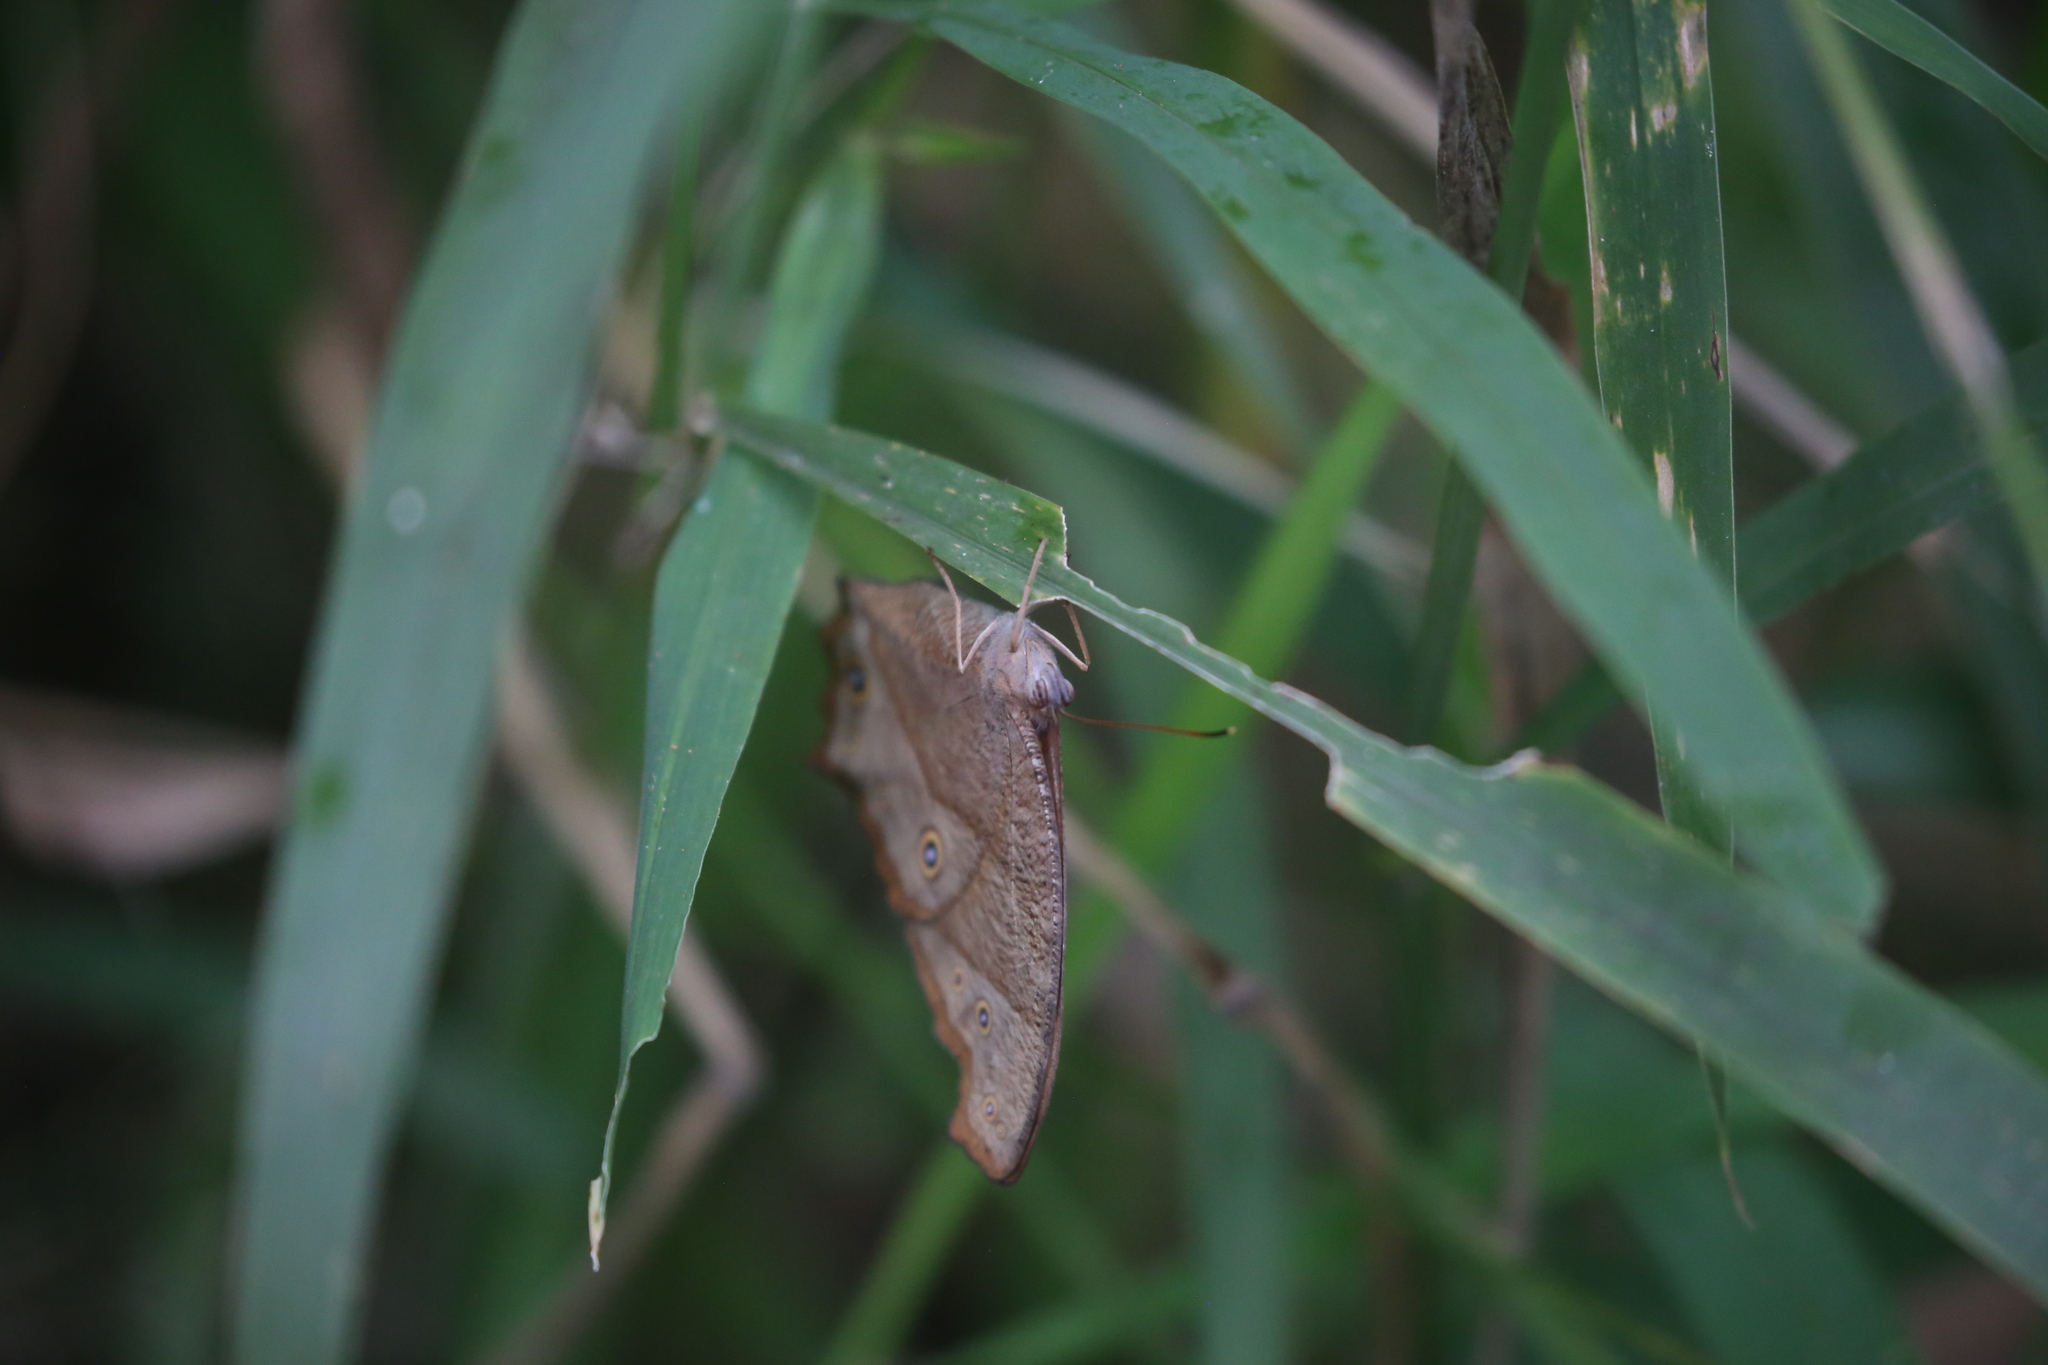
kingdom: Animalia
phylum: Arthropoda
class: Insecta
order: Lepidoptera
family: Nymphalidae
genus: Melanitis
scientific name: Melanitis leda
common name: Twilight brown
